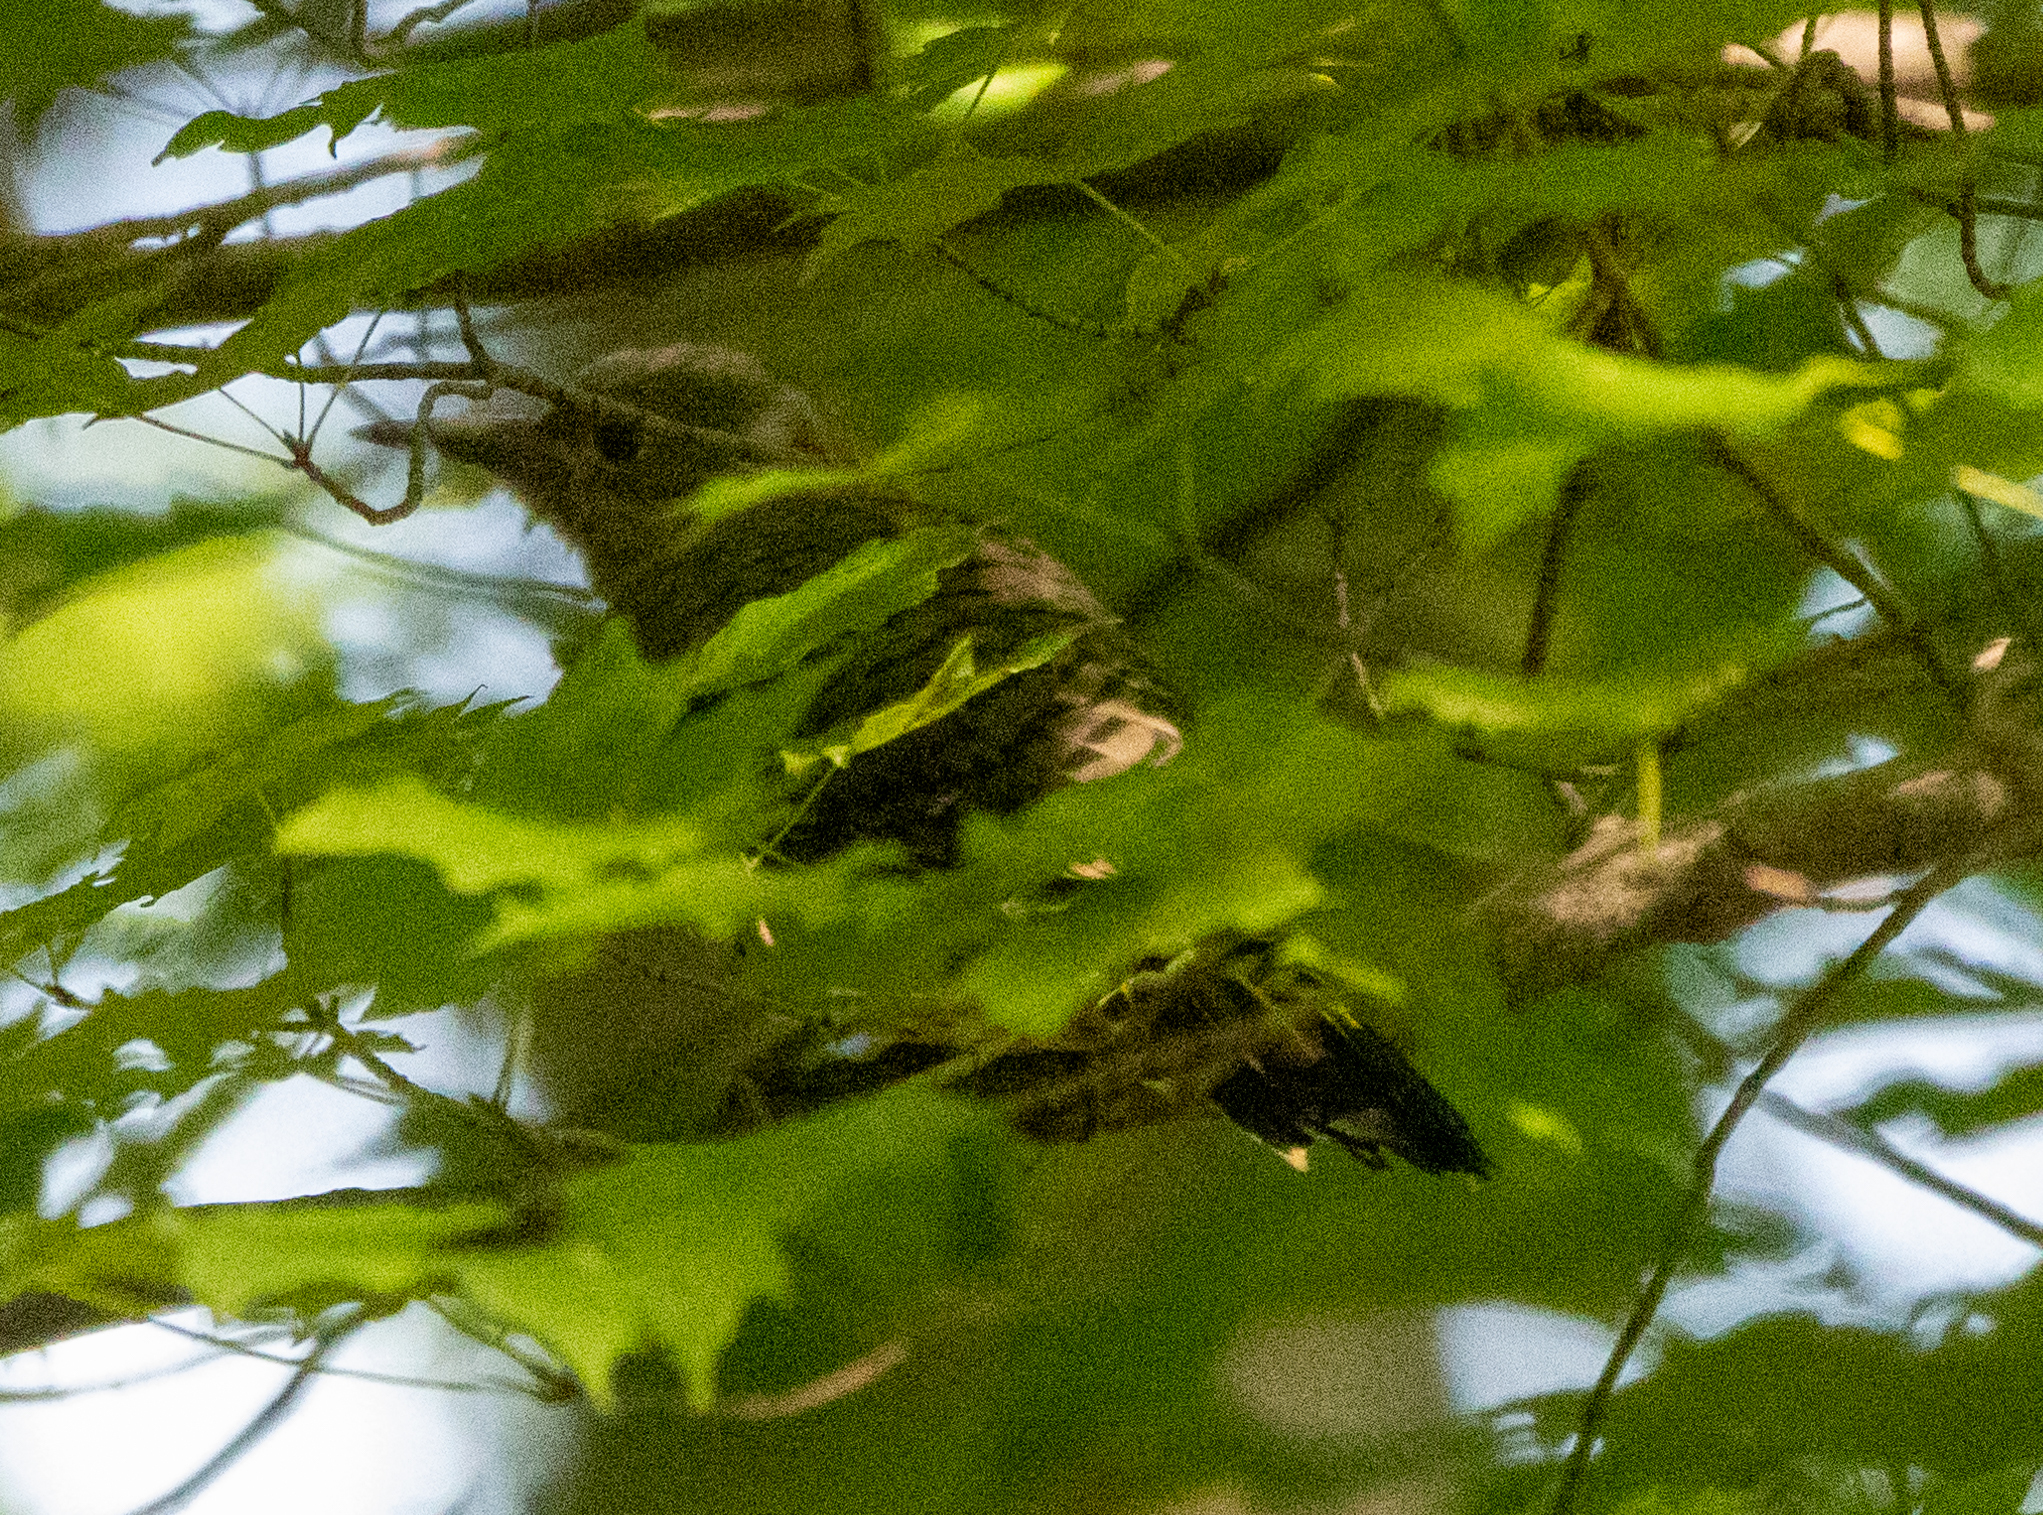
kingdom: Animalia
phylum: Chordata
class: Aves
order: Piciformes
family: Picidae
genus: Colaptes
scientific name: Colaptes auratus
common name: Northern flicker
